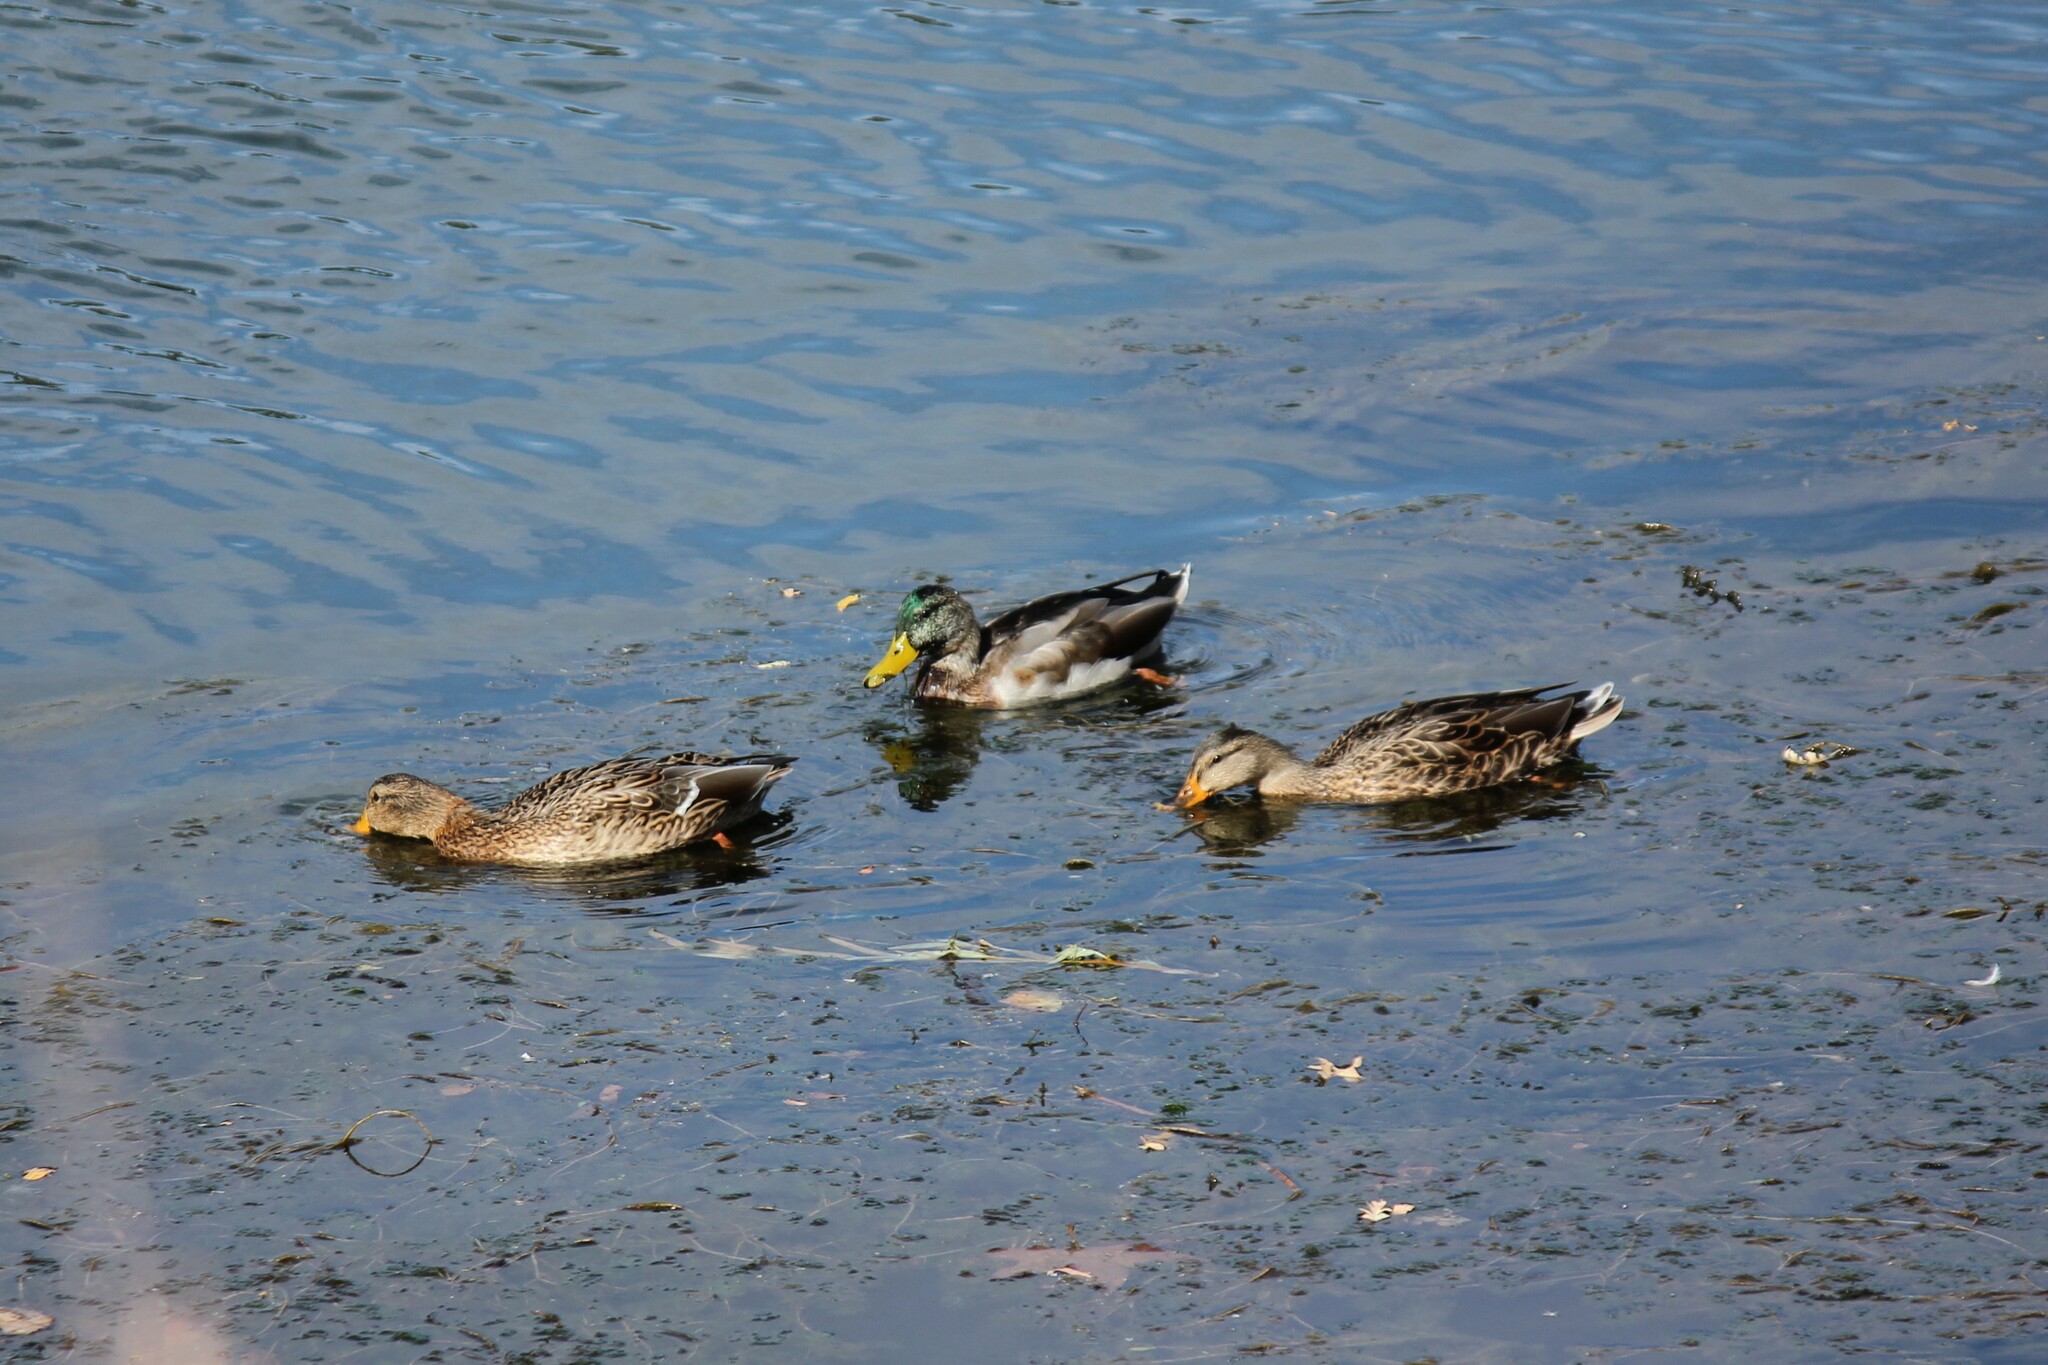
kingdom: Animalia
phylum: Chordata
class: Aves
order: Anseriformes
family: Anatidae
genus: Anas
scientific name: Anas platyrhynchos
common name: Mallard
